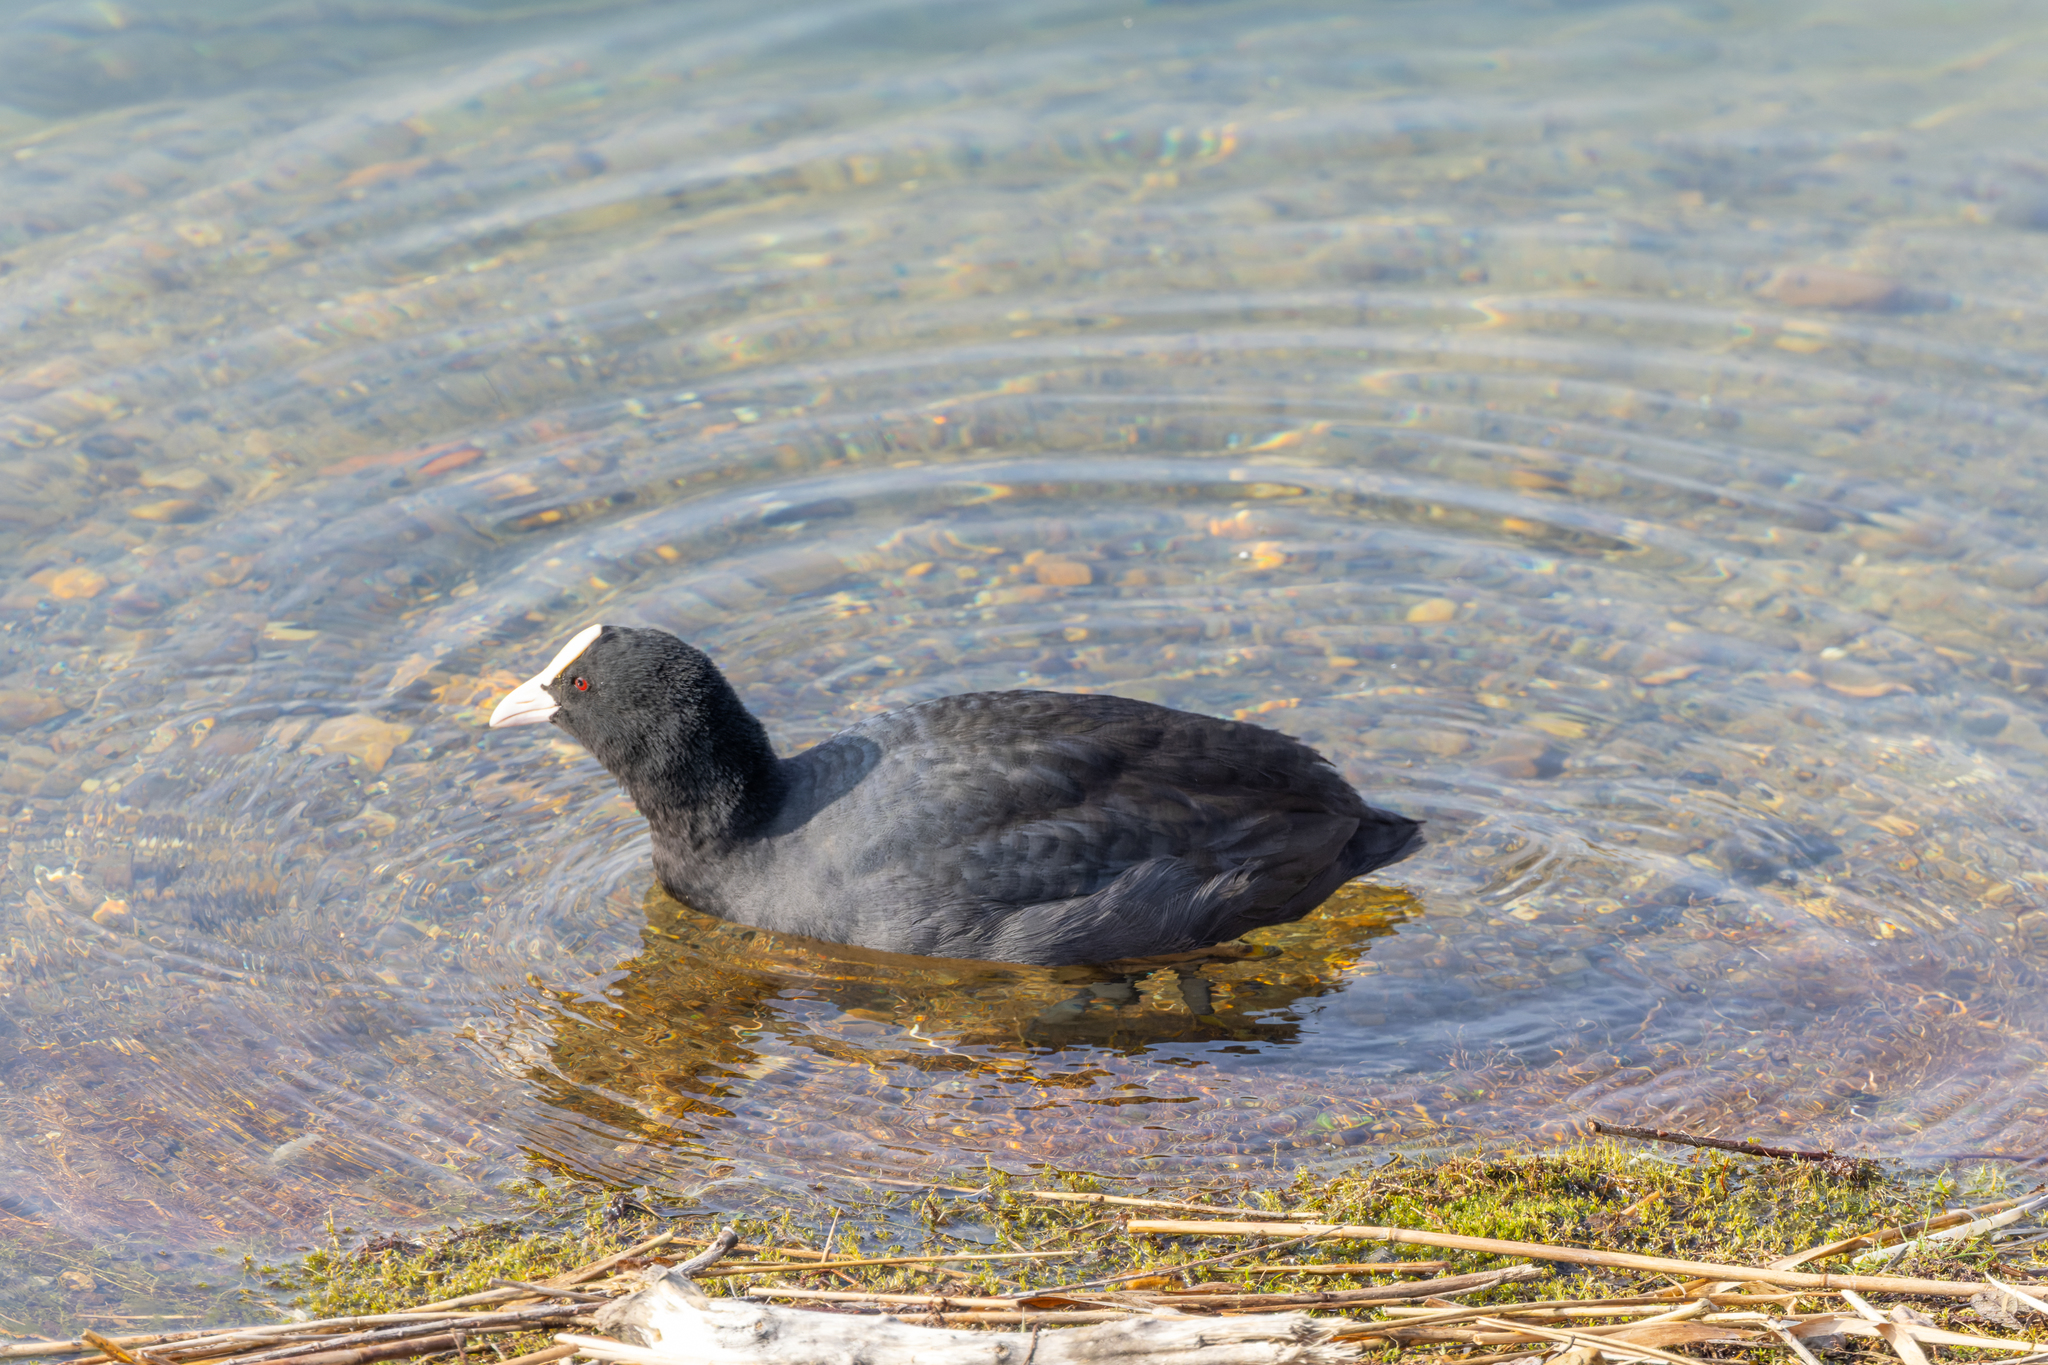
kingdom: Animalia
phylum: Chordata
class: Aves
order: Gruiformes
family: Rallidae
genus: Fulica
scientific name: Fulica atra
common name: Eurasian coot
